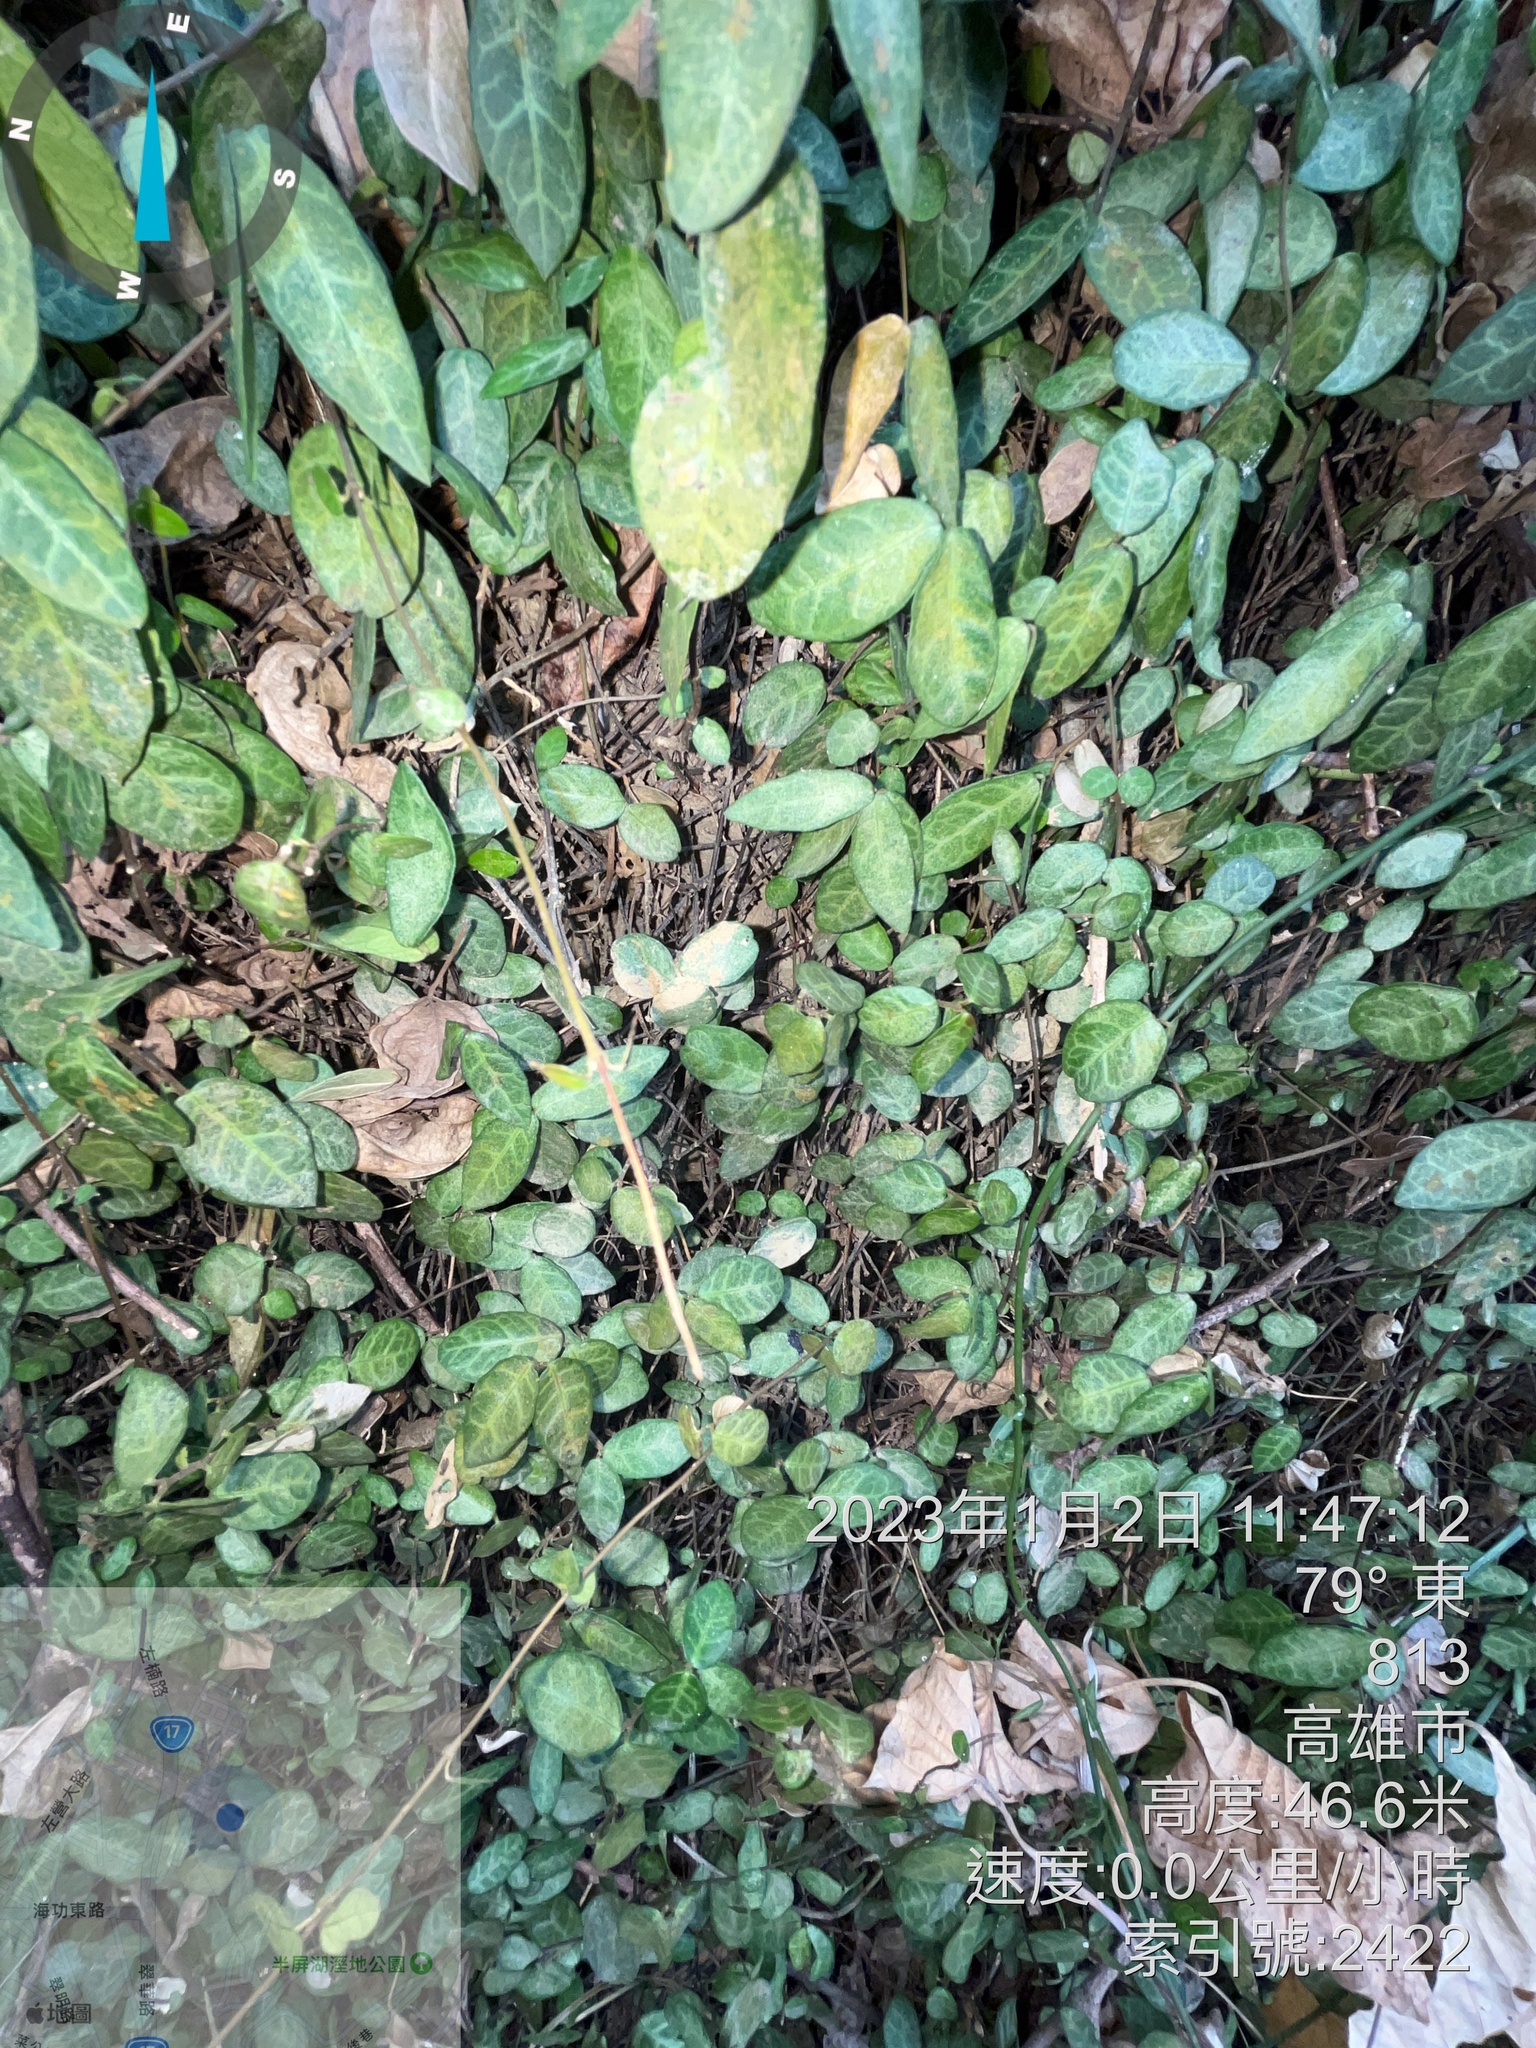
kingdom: Plantae
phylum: Tracheophyta
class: Magnoliopsida
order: Gentianales
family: Apocynaceae
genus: Trachelospermum
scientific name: Trachelospermum asiaticum
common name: Asiatic jasmine
